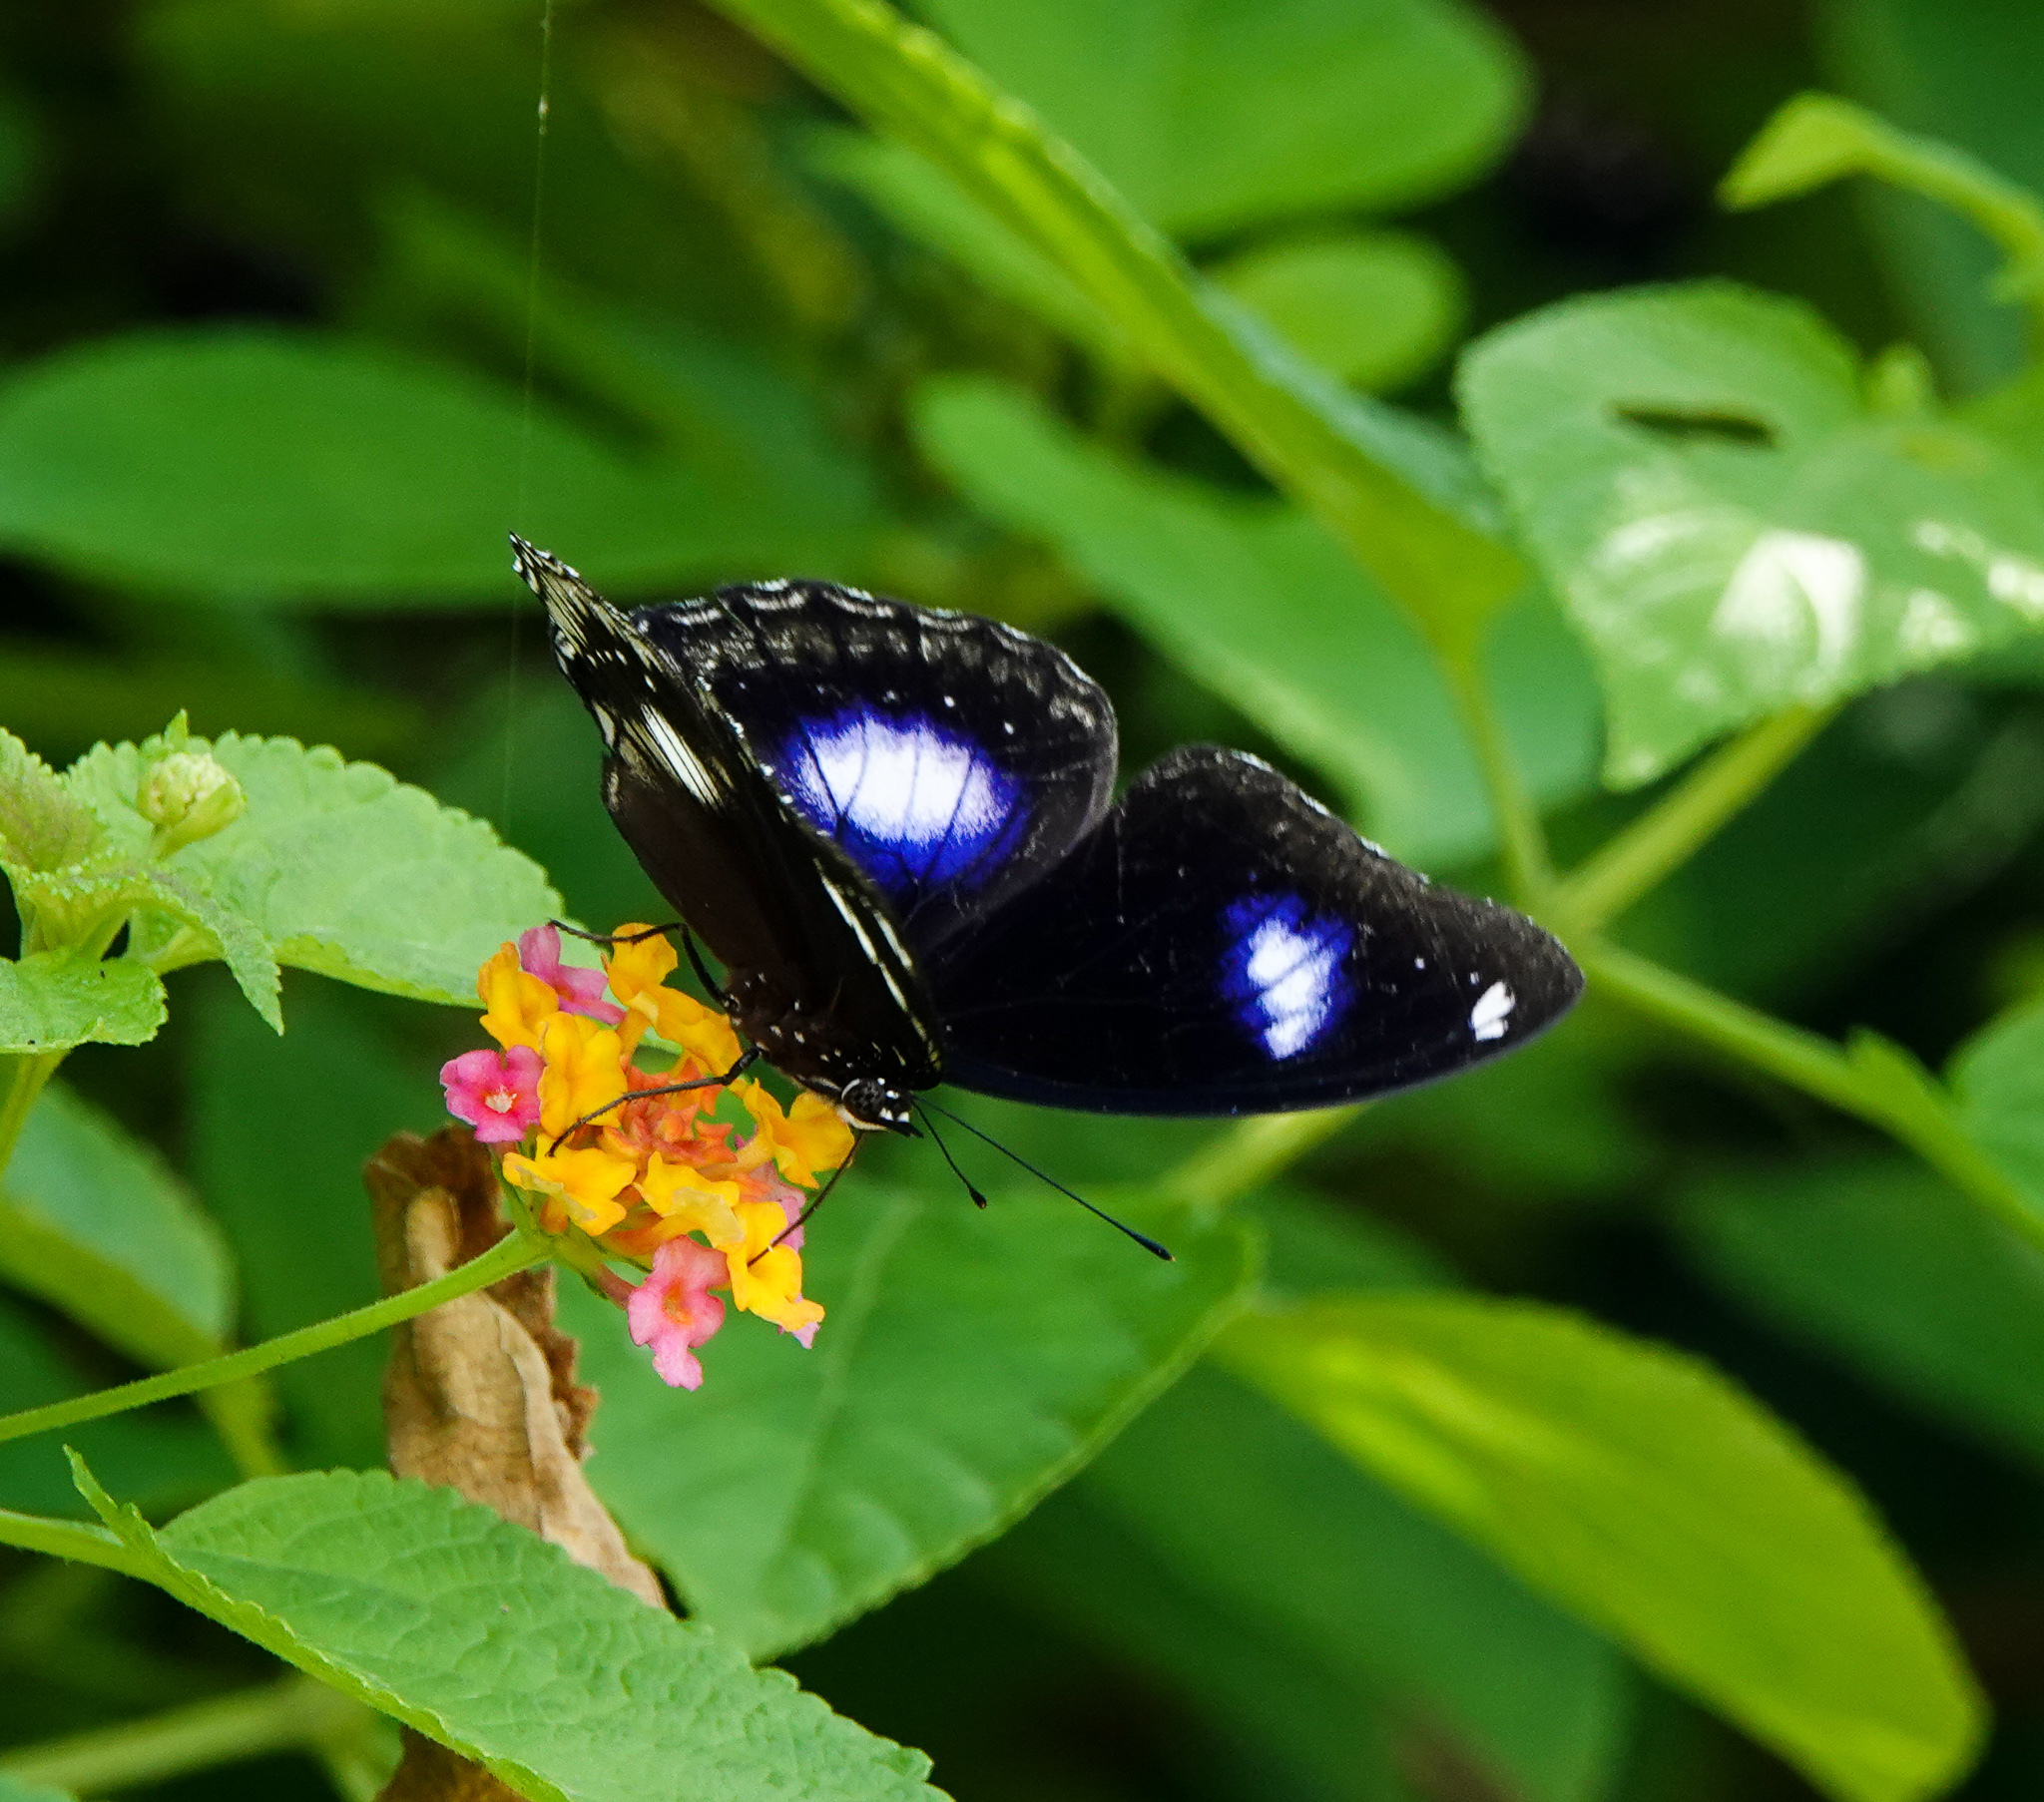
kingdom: Animalia
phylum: Arthropoda
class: Insecta
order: Lepidoptera
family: Nymphalidae
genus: Hypolimnas
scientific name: Hypolimnas bolina
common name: Great eggfly
